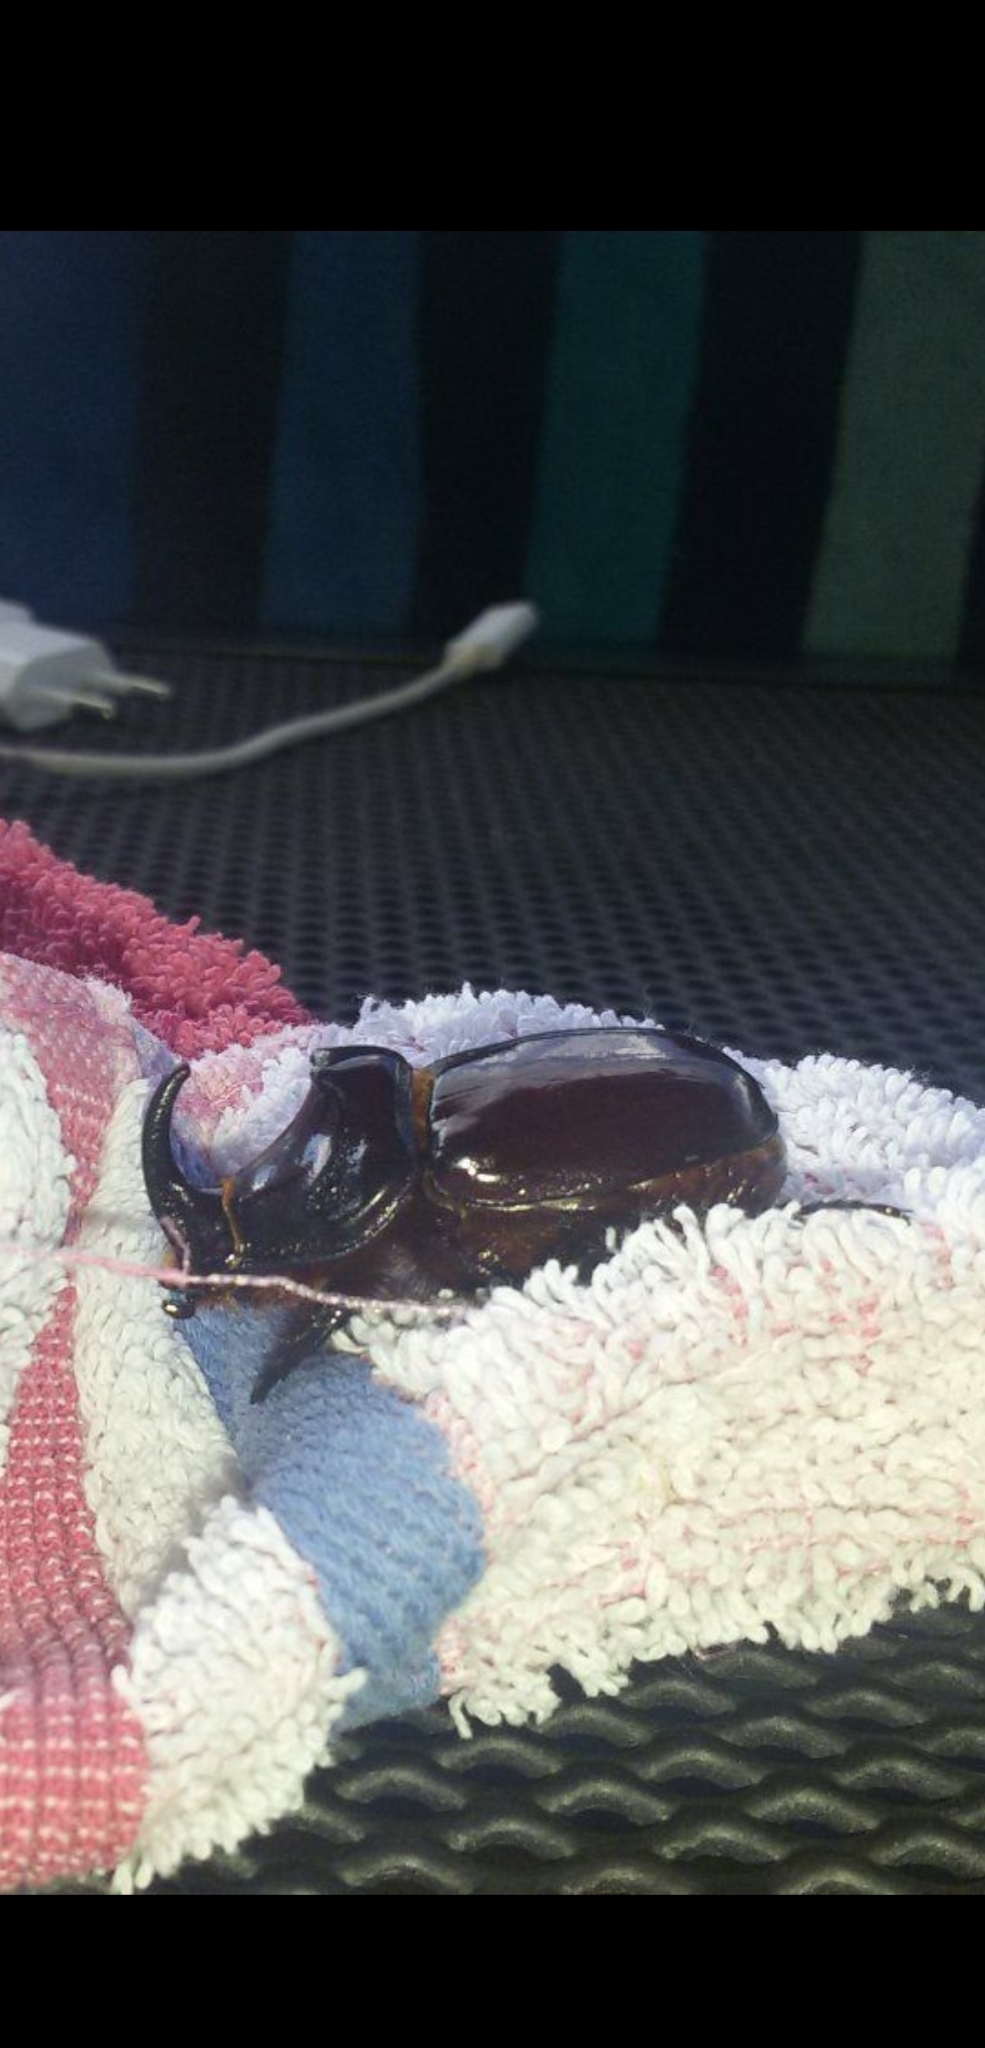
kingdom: Animalia
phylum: Arthropoda
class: Insecta
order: Coleoptera
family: Scarabaeidae
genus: Oryctes
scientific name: Oryctes nasicornis
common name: European rhinoceros beetle
